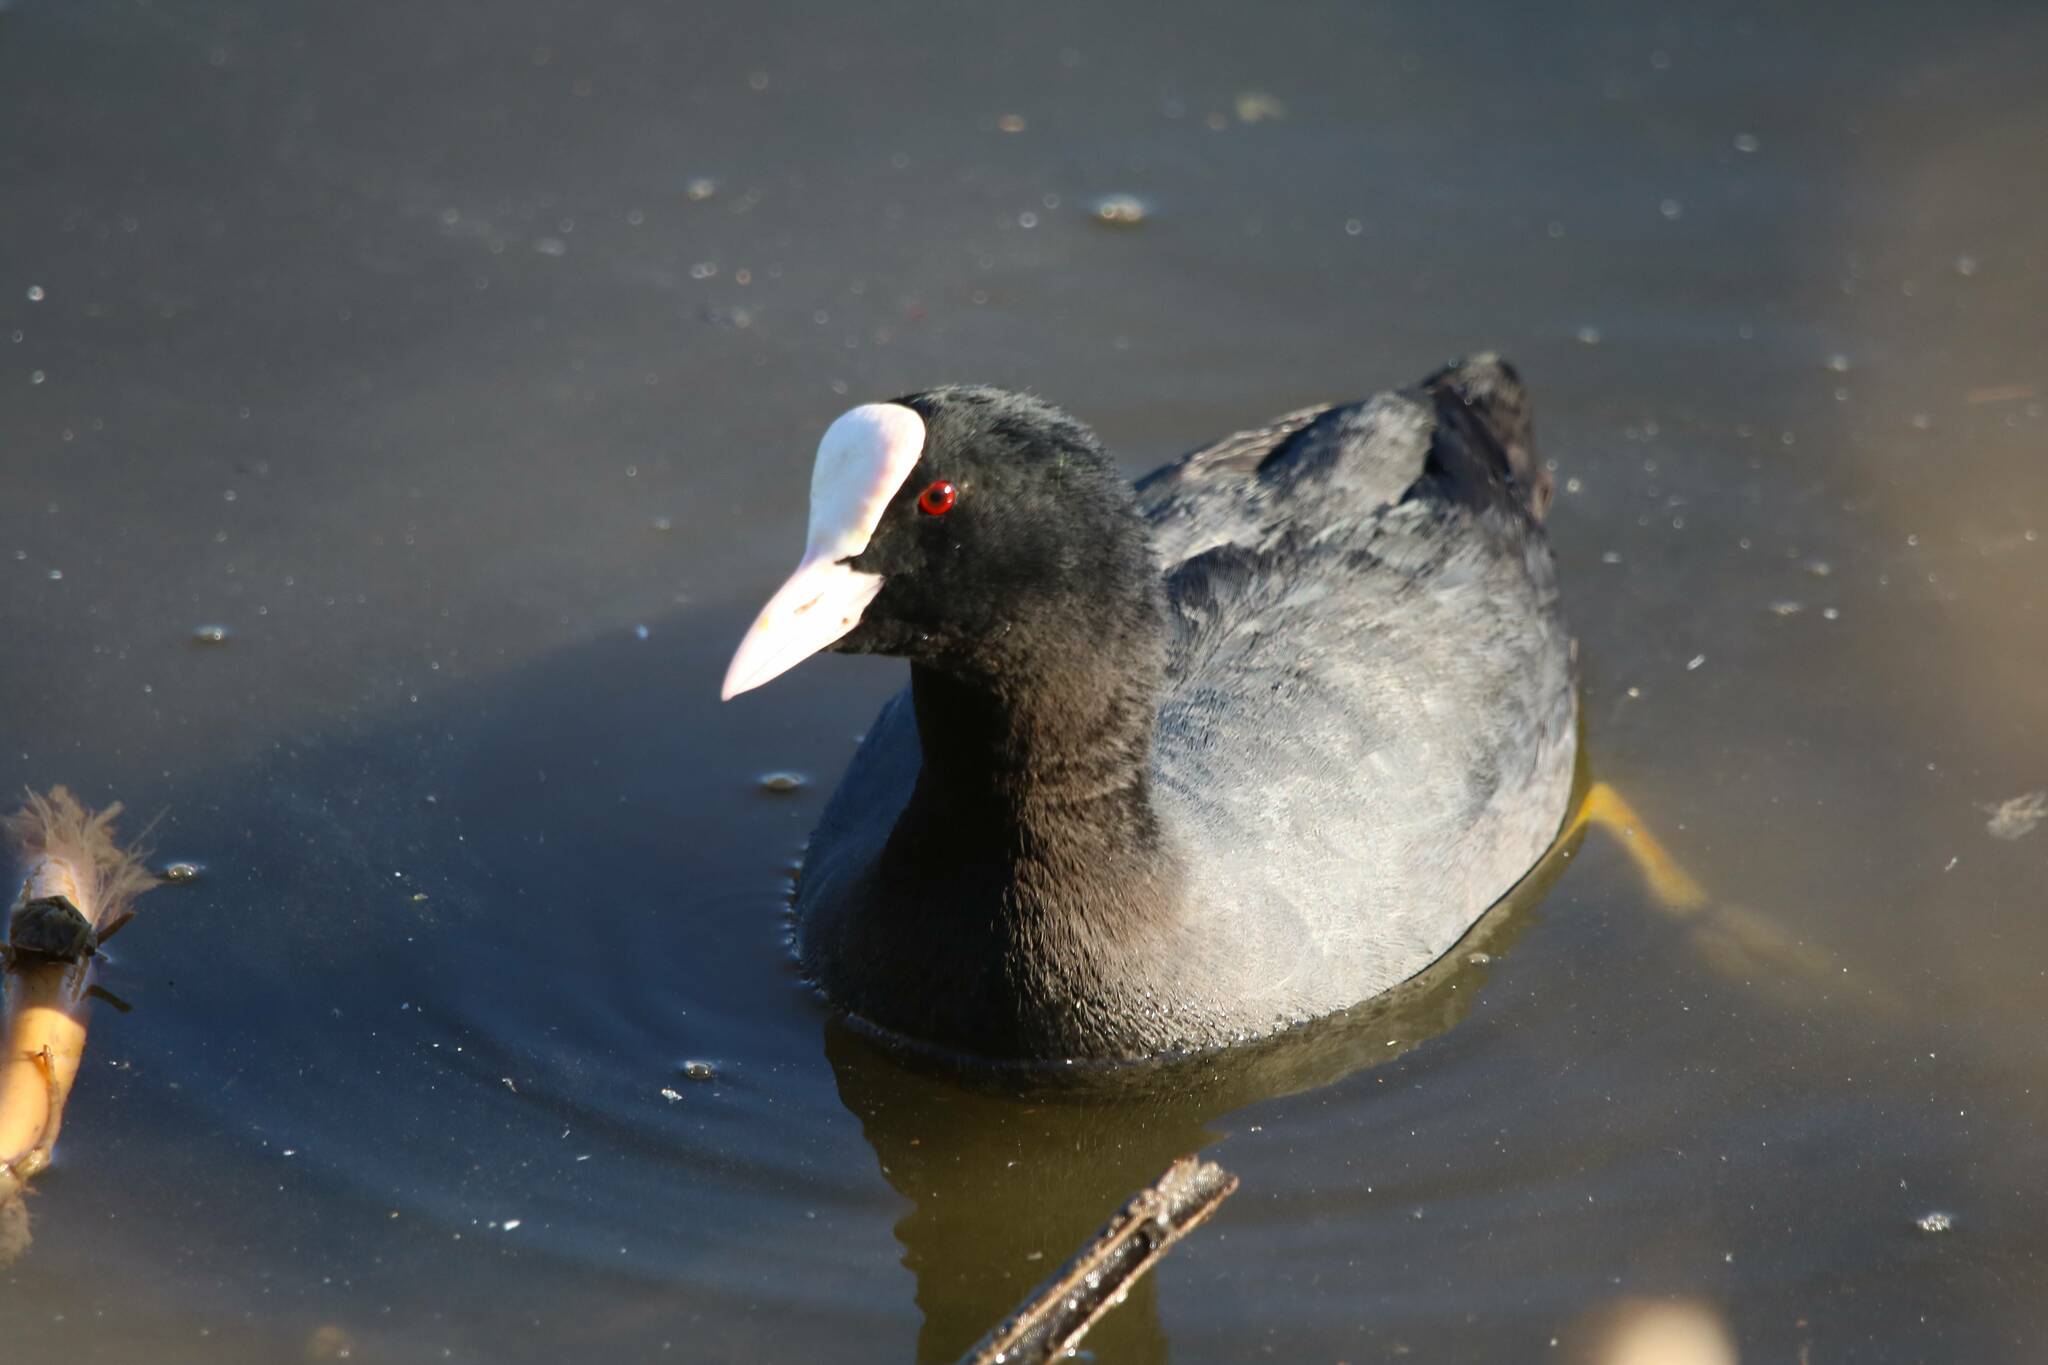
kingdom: Animalia
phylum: Chordata
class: Aves
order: Gruiformes
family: Rallidae
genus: Fulica
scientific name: Fulica atra
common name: Eurasian coot
